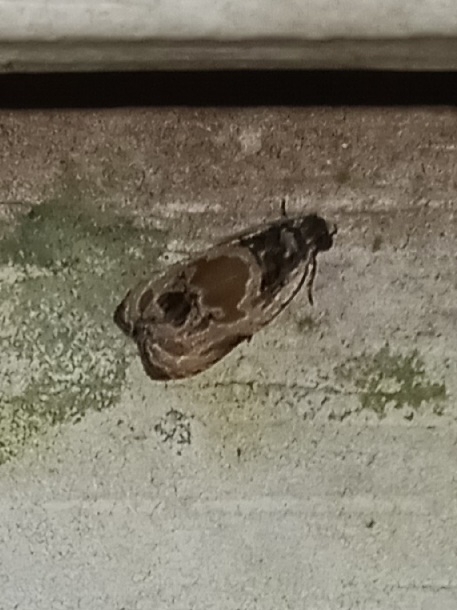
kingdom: Animalia
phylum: Arthropoda
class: Insecta
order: Lepidoptera
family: Tortricidae
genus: Olethreutes
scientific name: Olethreutes griseoalbana
